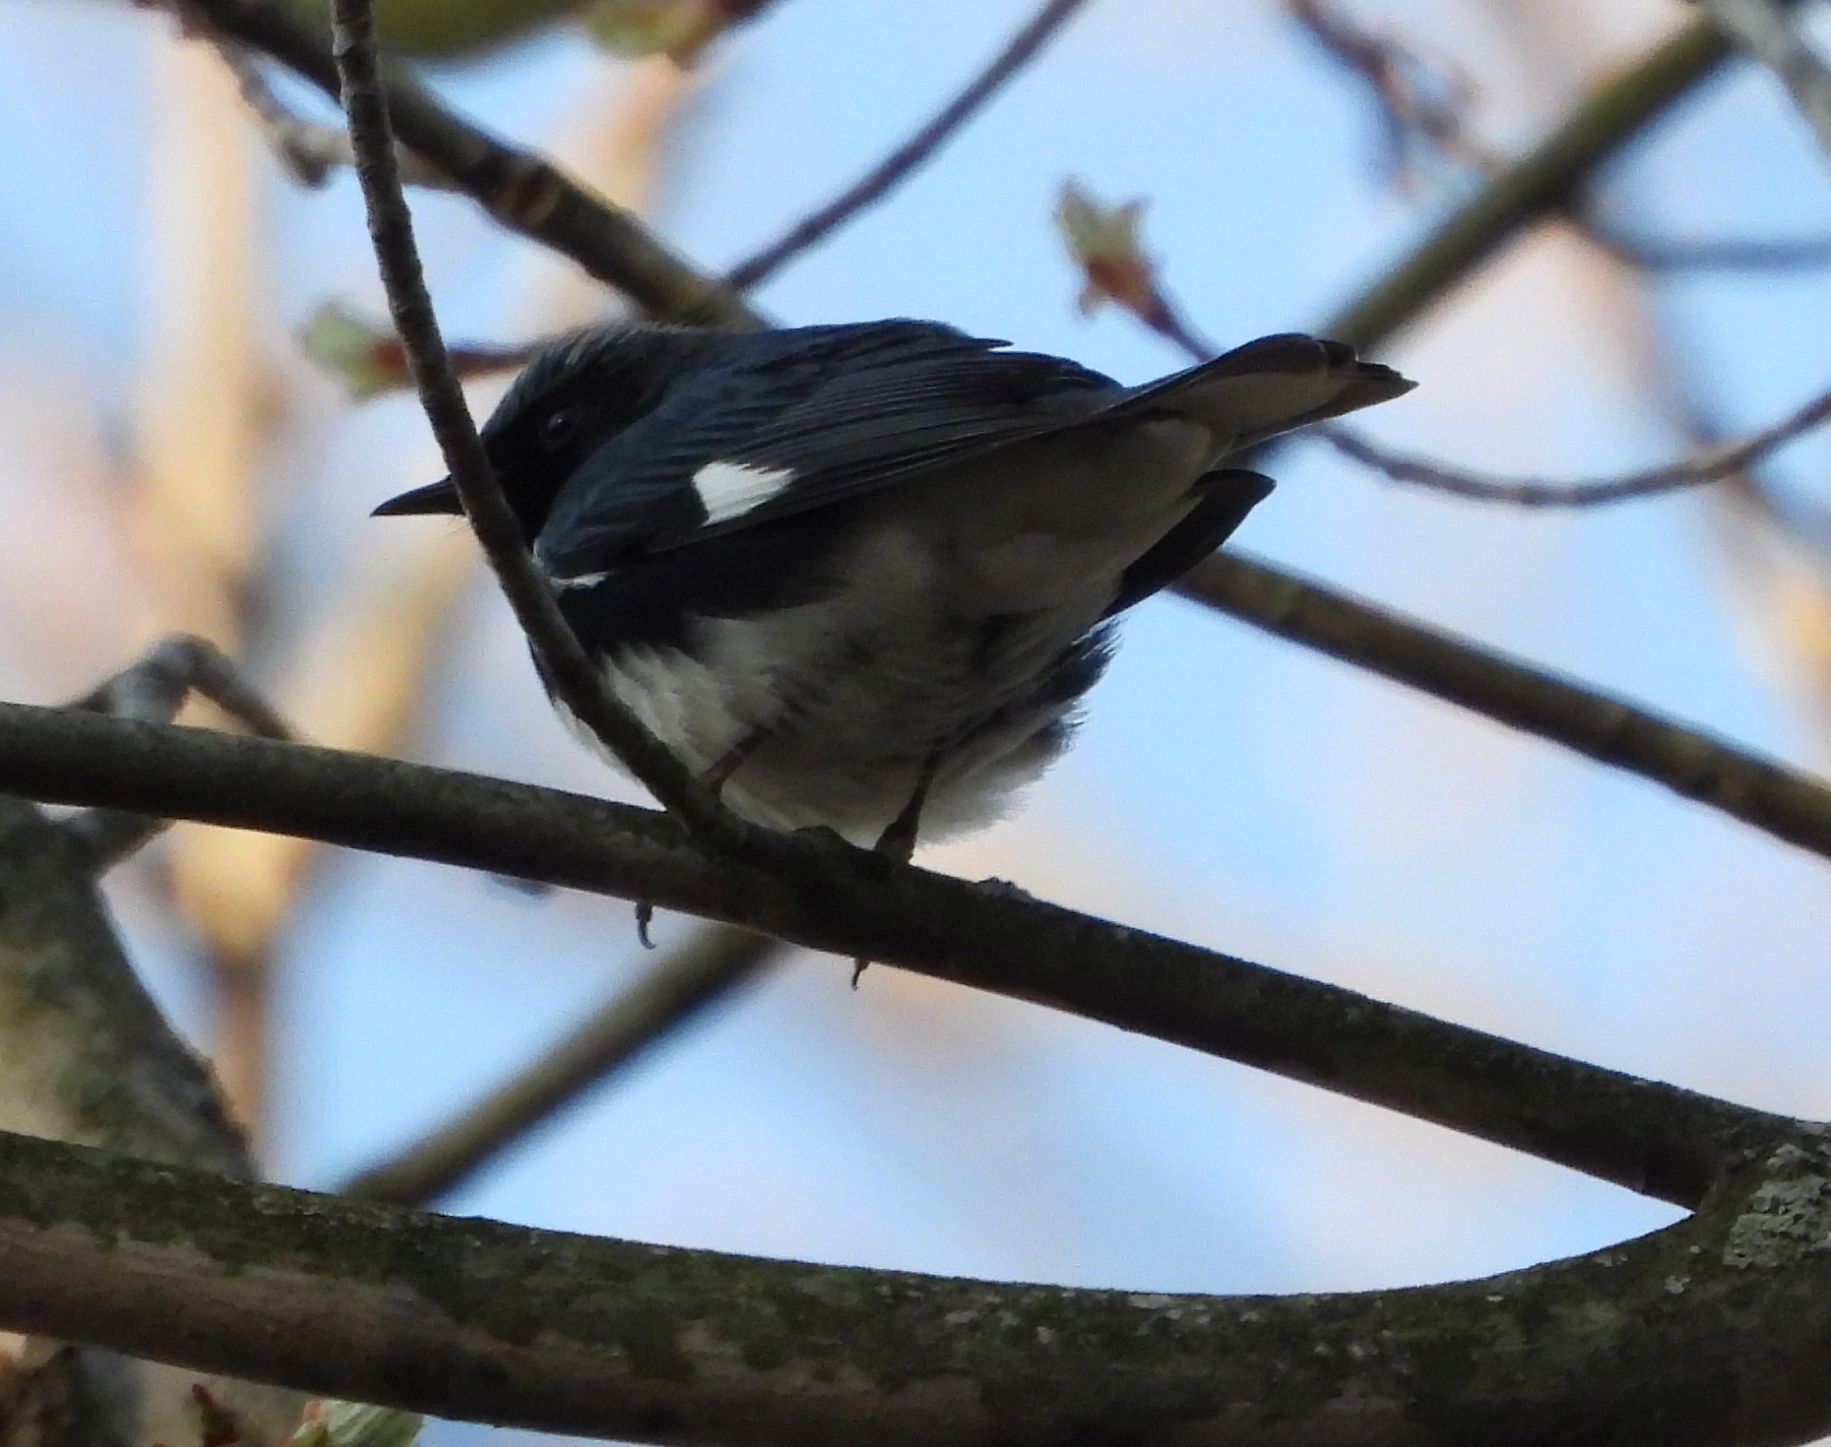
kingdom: Animalia
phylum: Chordata
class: Aves
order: Passeriformes
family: Parulidae
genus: Setophaga
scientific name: Setophaga caerulescens
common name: Black-throated blue warbler
